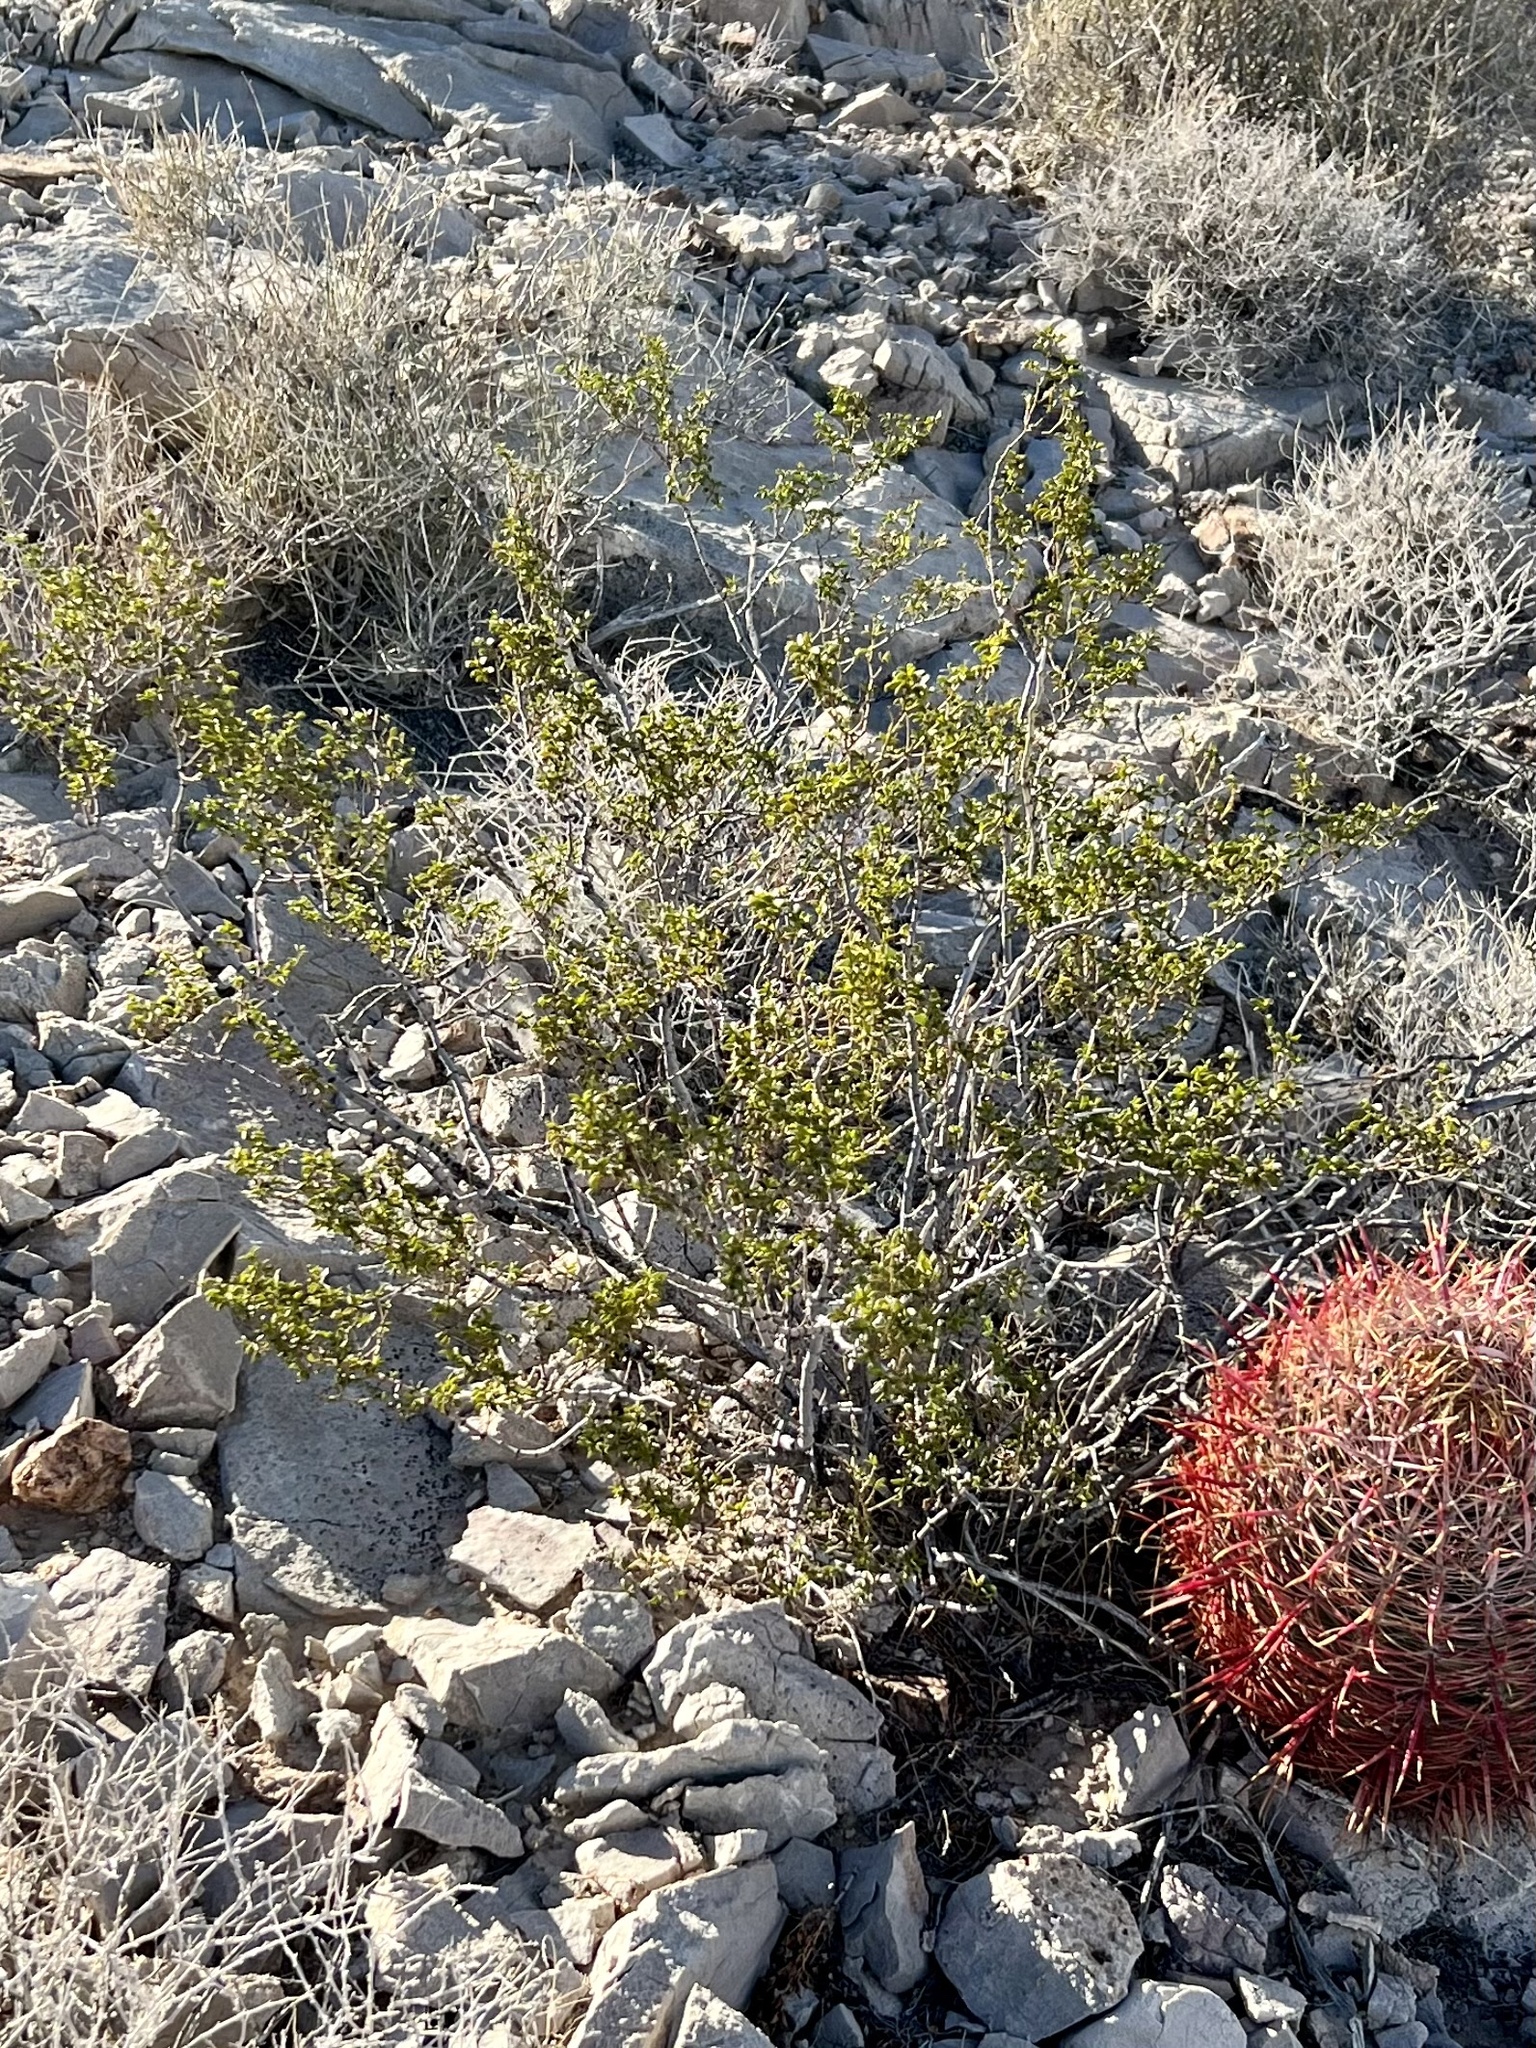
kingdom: Plantae
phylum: Tracheophyta
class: Magnoliopsida
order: Zygophyllales
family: Zygophyllaceae
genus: Larrea
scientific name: Larrea tridentata
